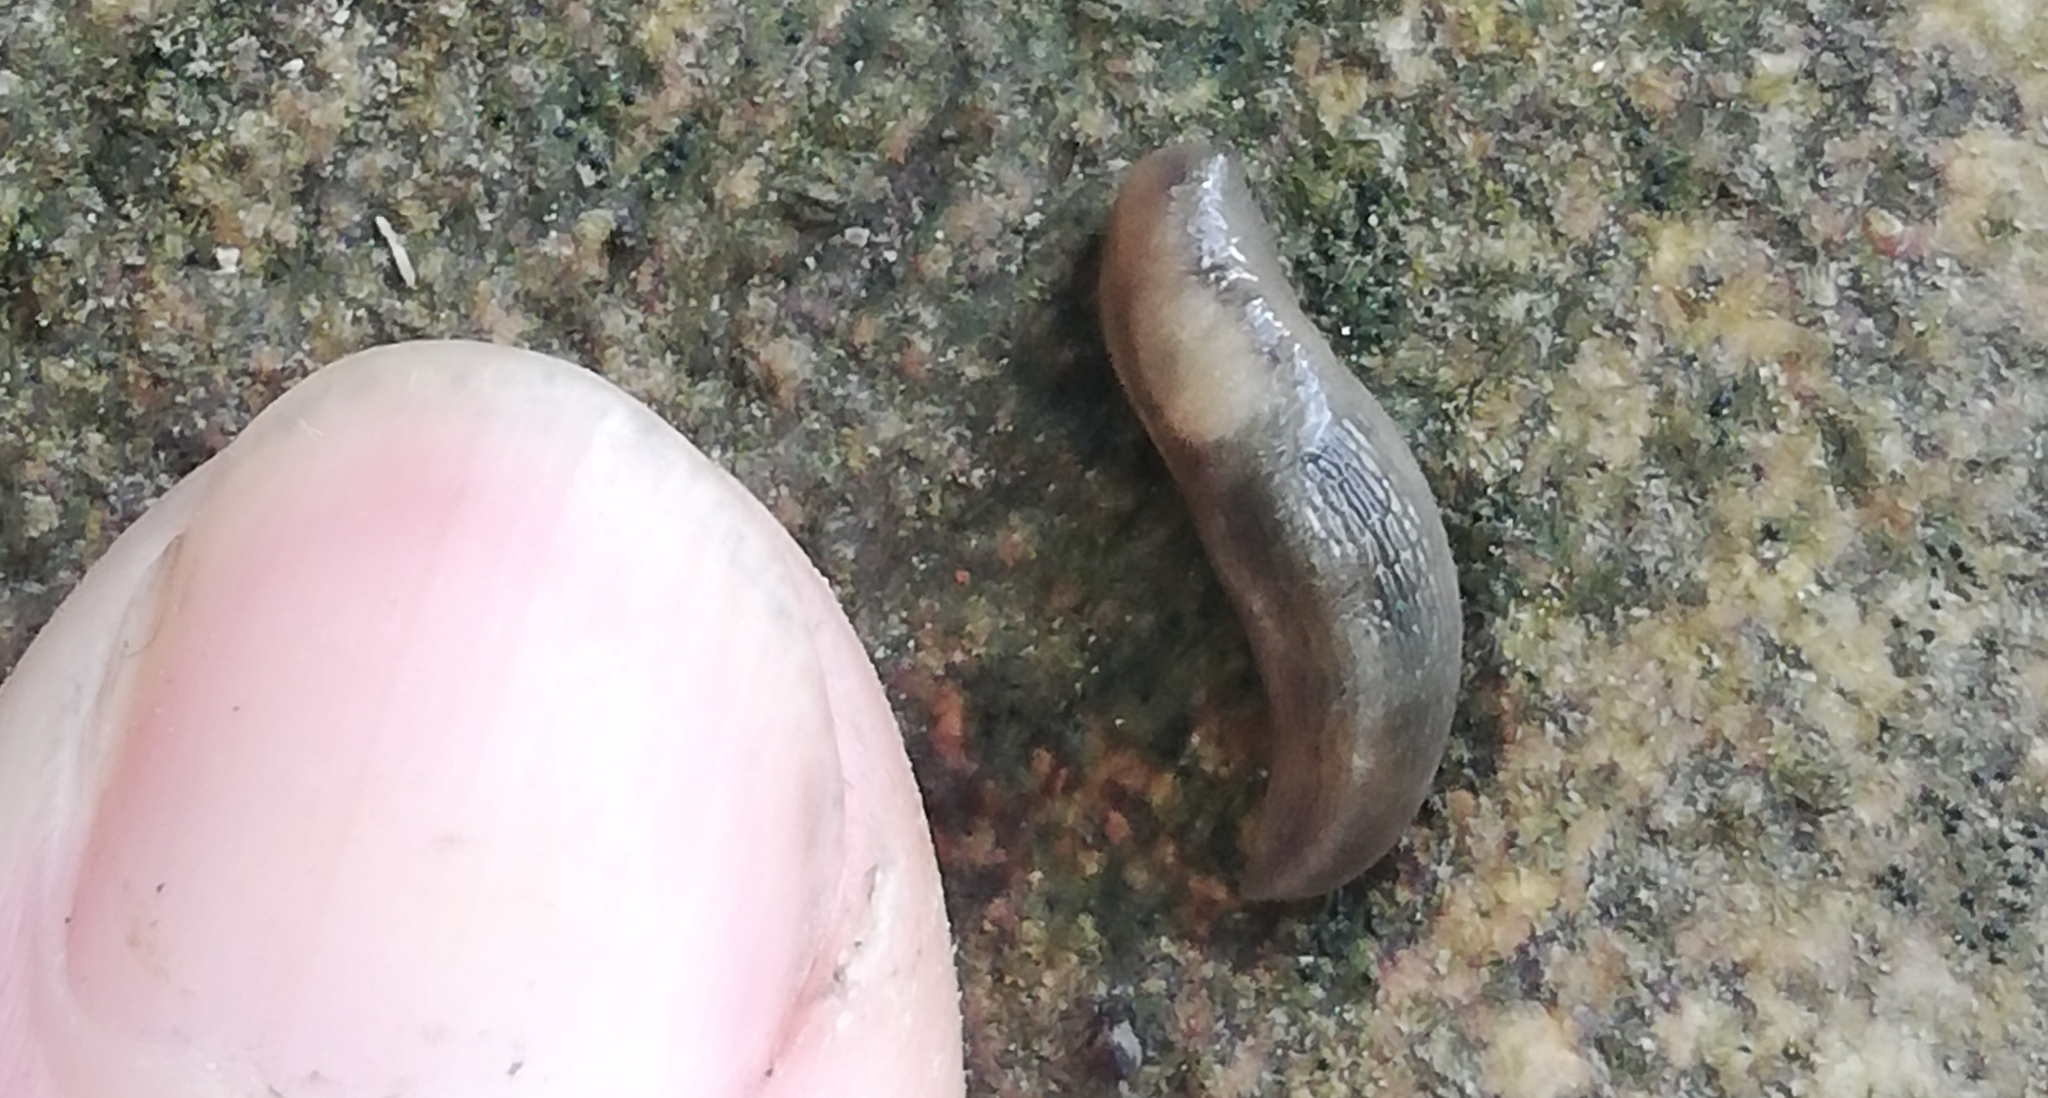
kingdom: Animalia
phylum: Mollusca
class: Gastropoda
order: Stylommatophora
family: Limacidae
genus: Lehmannia
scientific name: Lehmannia marginata
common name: Tree slug
